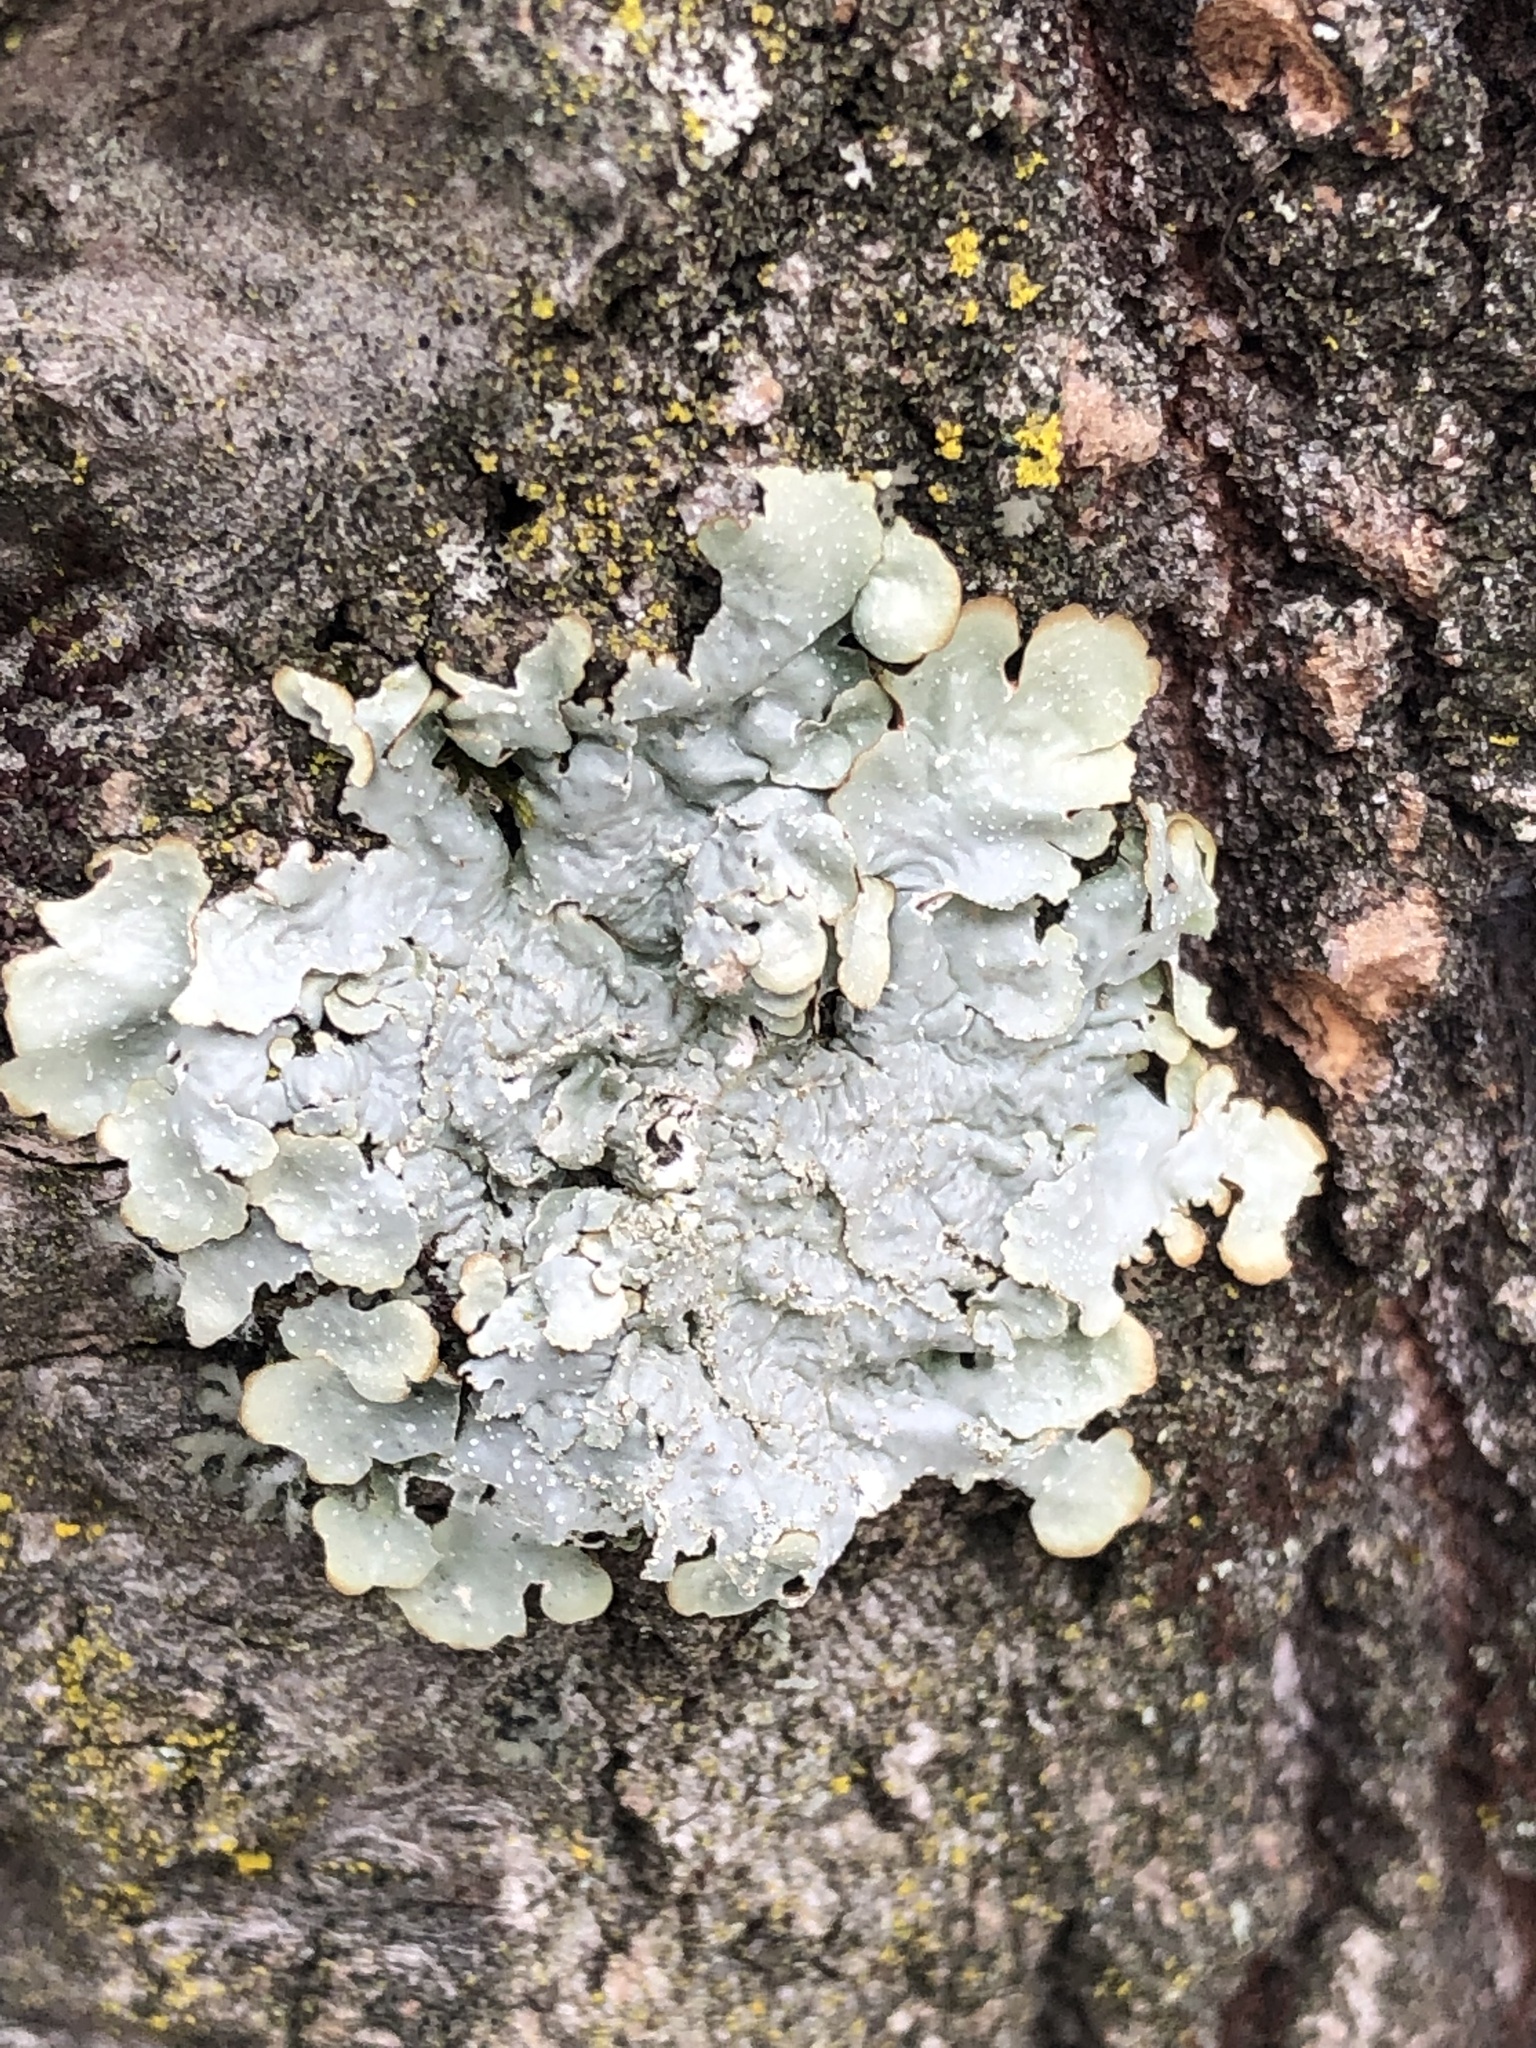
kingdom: Fungi
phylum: Ascomycota
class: Lecanoromycetes
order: Lecanorales
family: Parmeliaceae
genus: Punctelia
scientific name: Punctelia rudecta
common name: Rough speckled shield lichen
